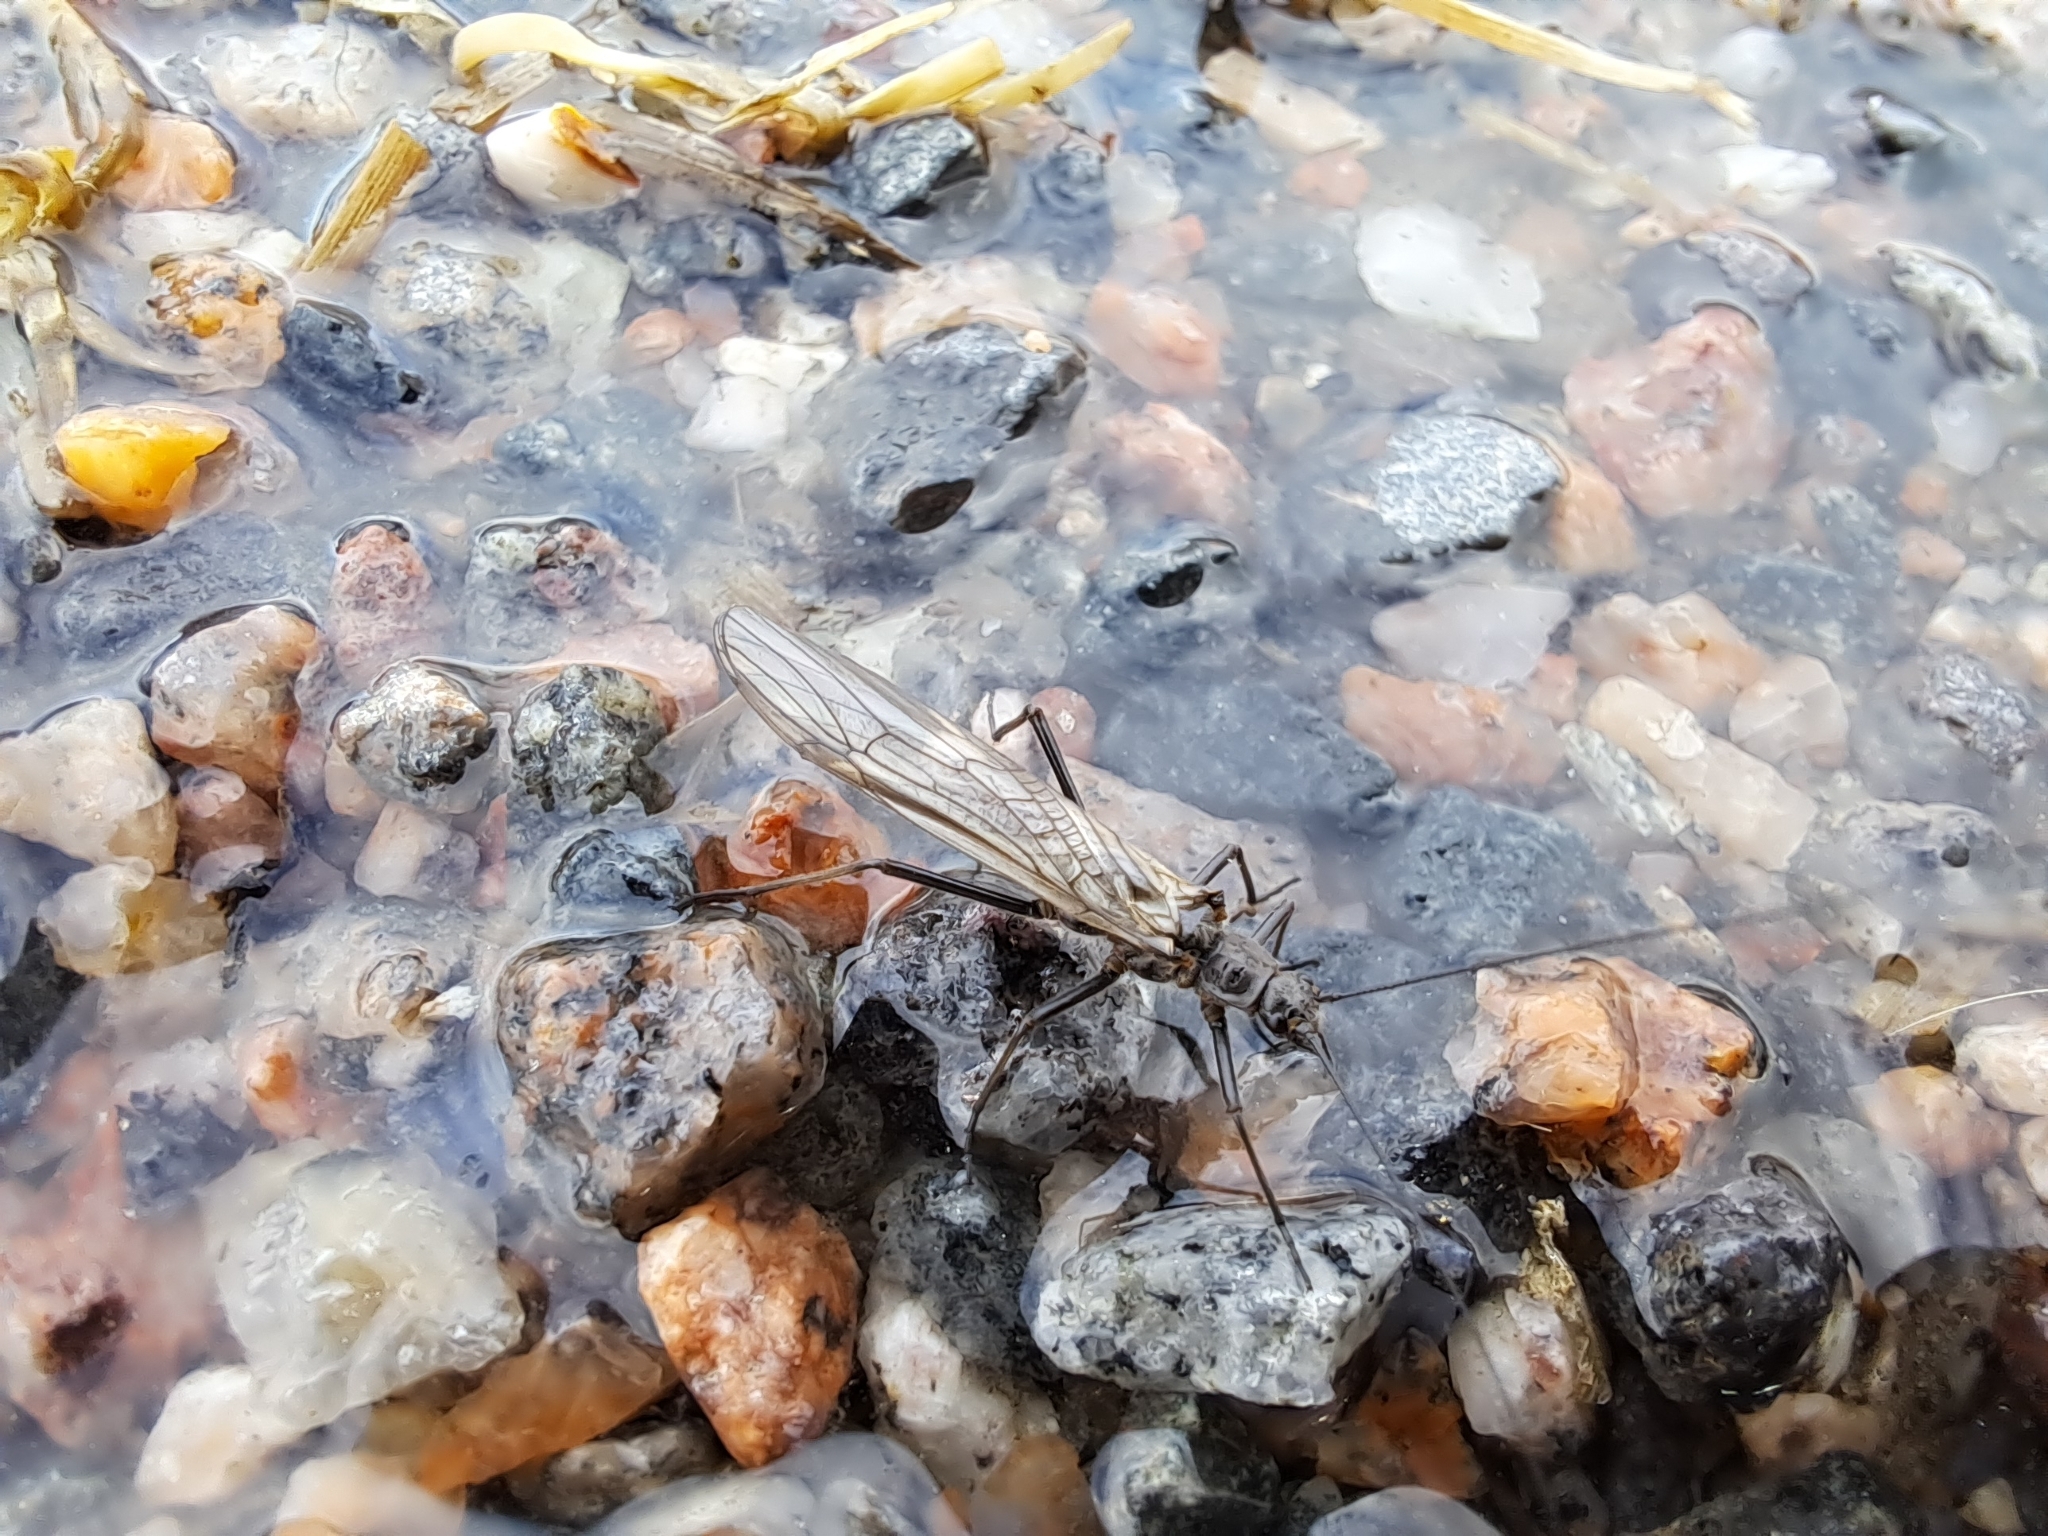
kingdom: Animalia
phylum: Arthropoda
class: Insecta
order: Plecoptera
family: Taeniopterygidae
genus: Taeniopteryx
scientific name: Taeniopteryx nebulosa
